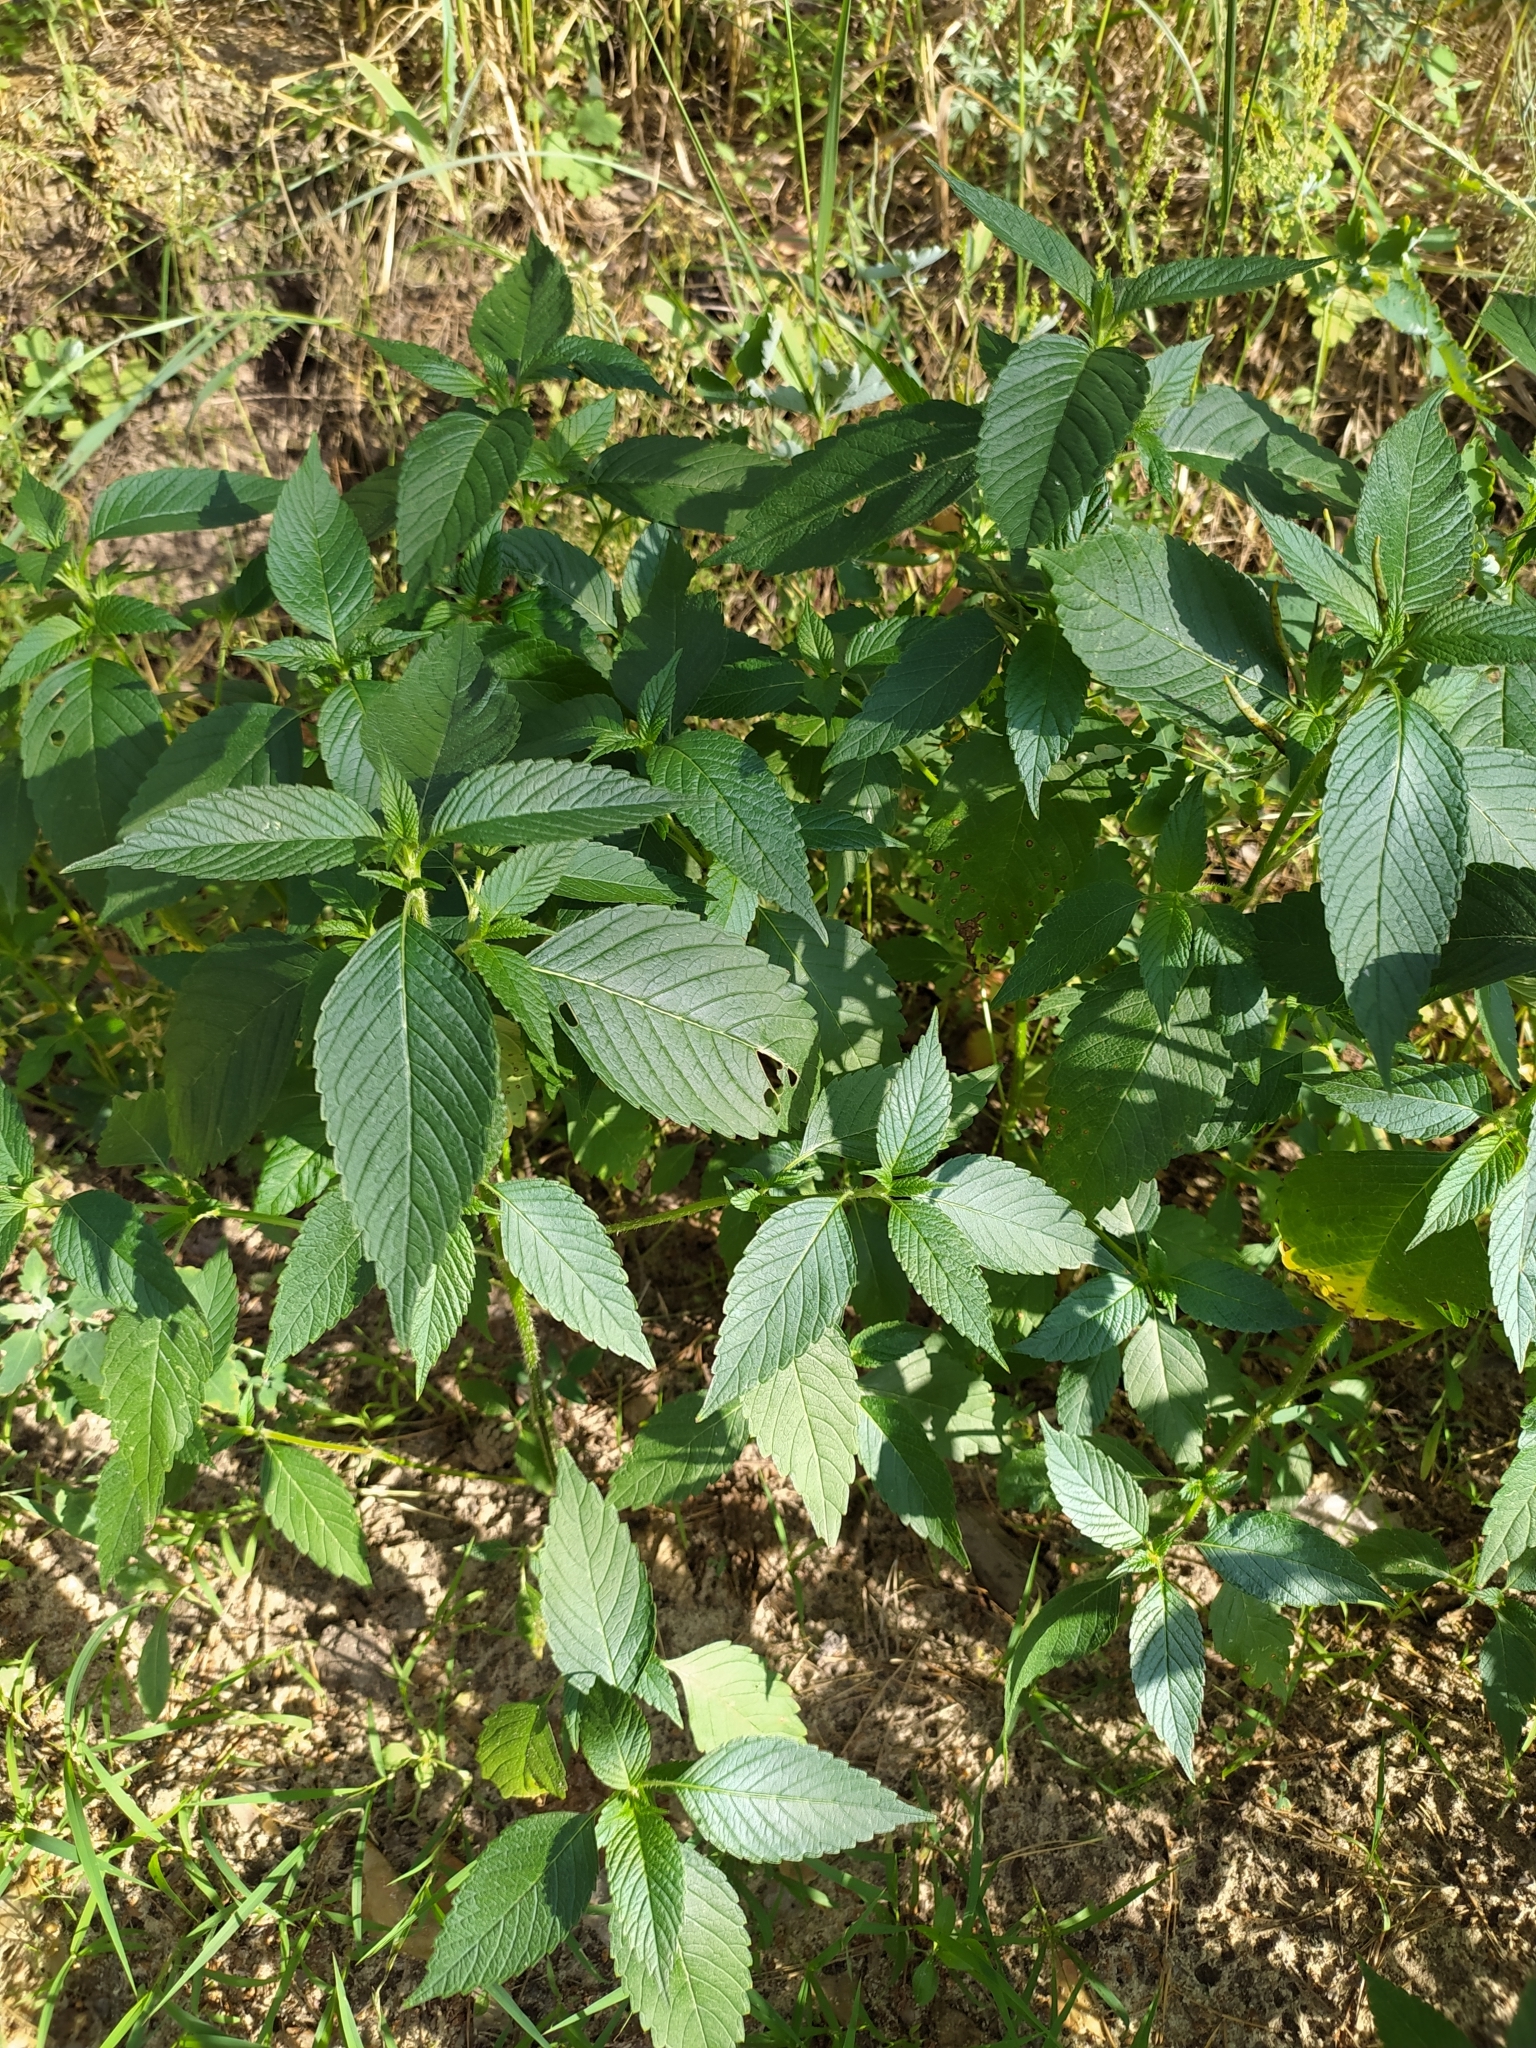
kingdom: Plantae
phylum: Tracheophyta
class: Magnoliopsida
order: Lamiales
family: Lamiaceae
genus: Galeopsis
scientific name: Galeopsis
